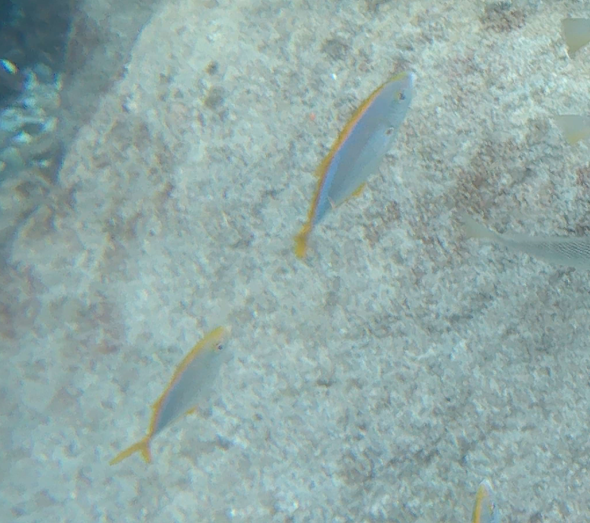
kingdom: Animalia
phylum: Chordata
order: Perciformes
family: Carangidae
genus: Carangoides
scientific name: Carangoides bartholomaei
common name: Yellow jack
